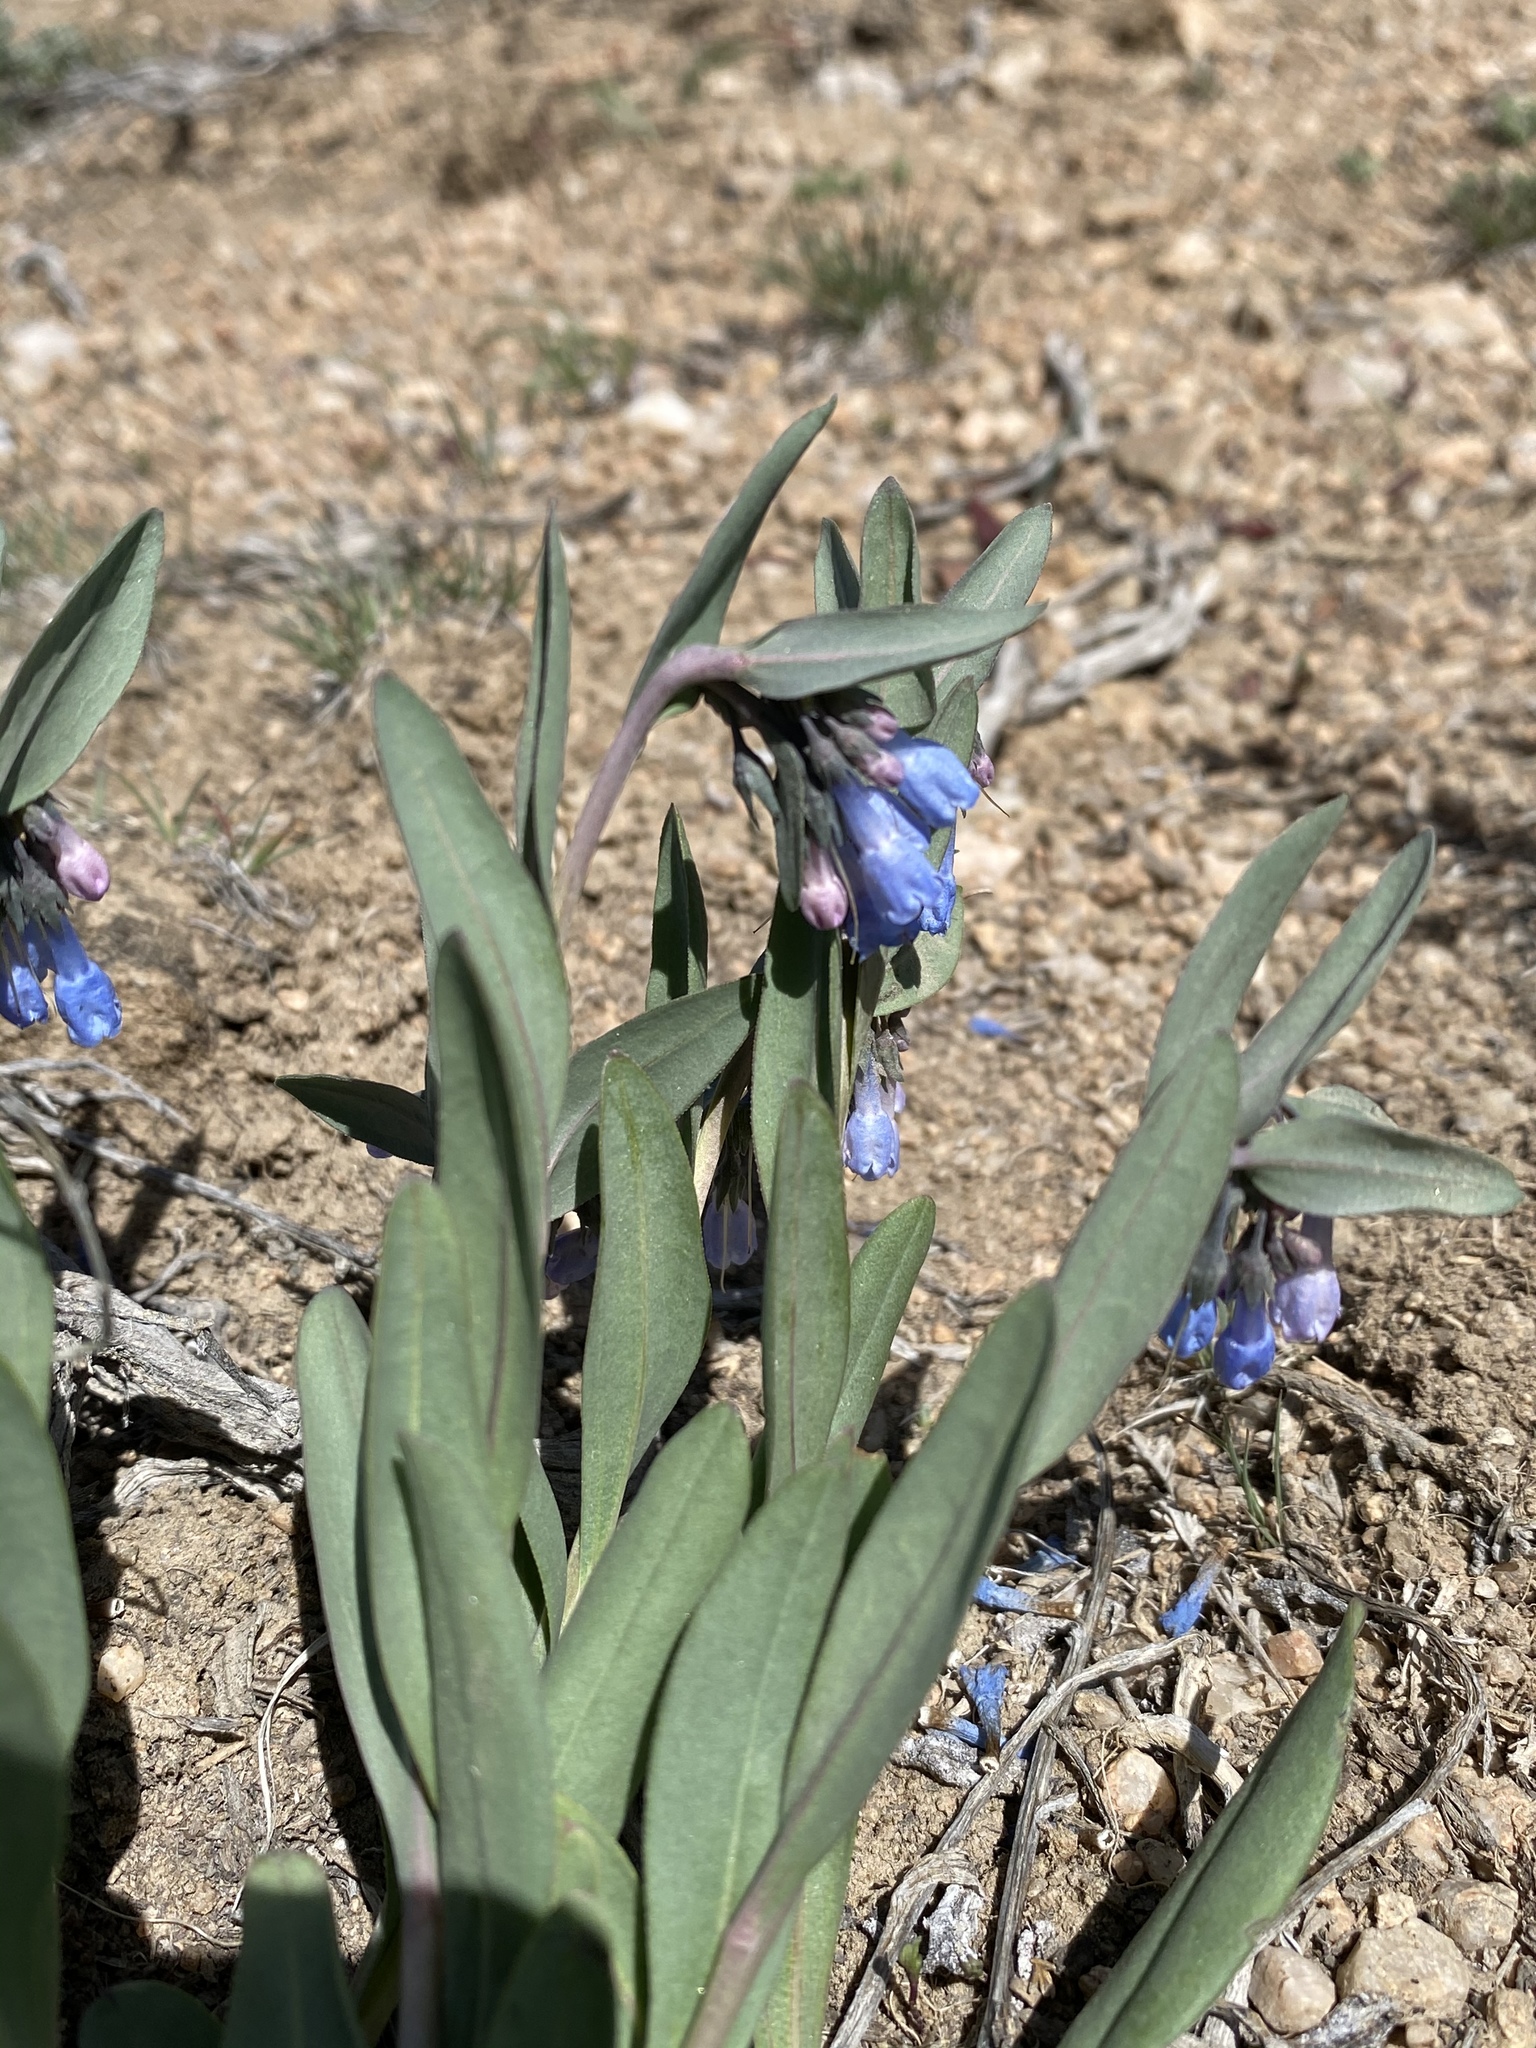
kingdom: Plantae
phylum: Tracheophyta
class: Magnoliopsida
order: Boraginales
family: Boraginaceae
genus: Mertensia
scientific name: Mertensia nevadensis
